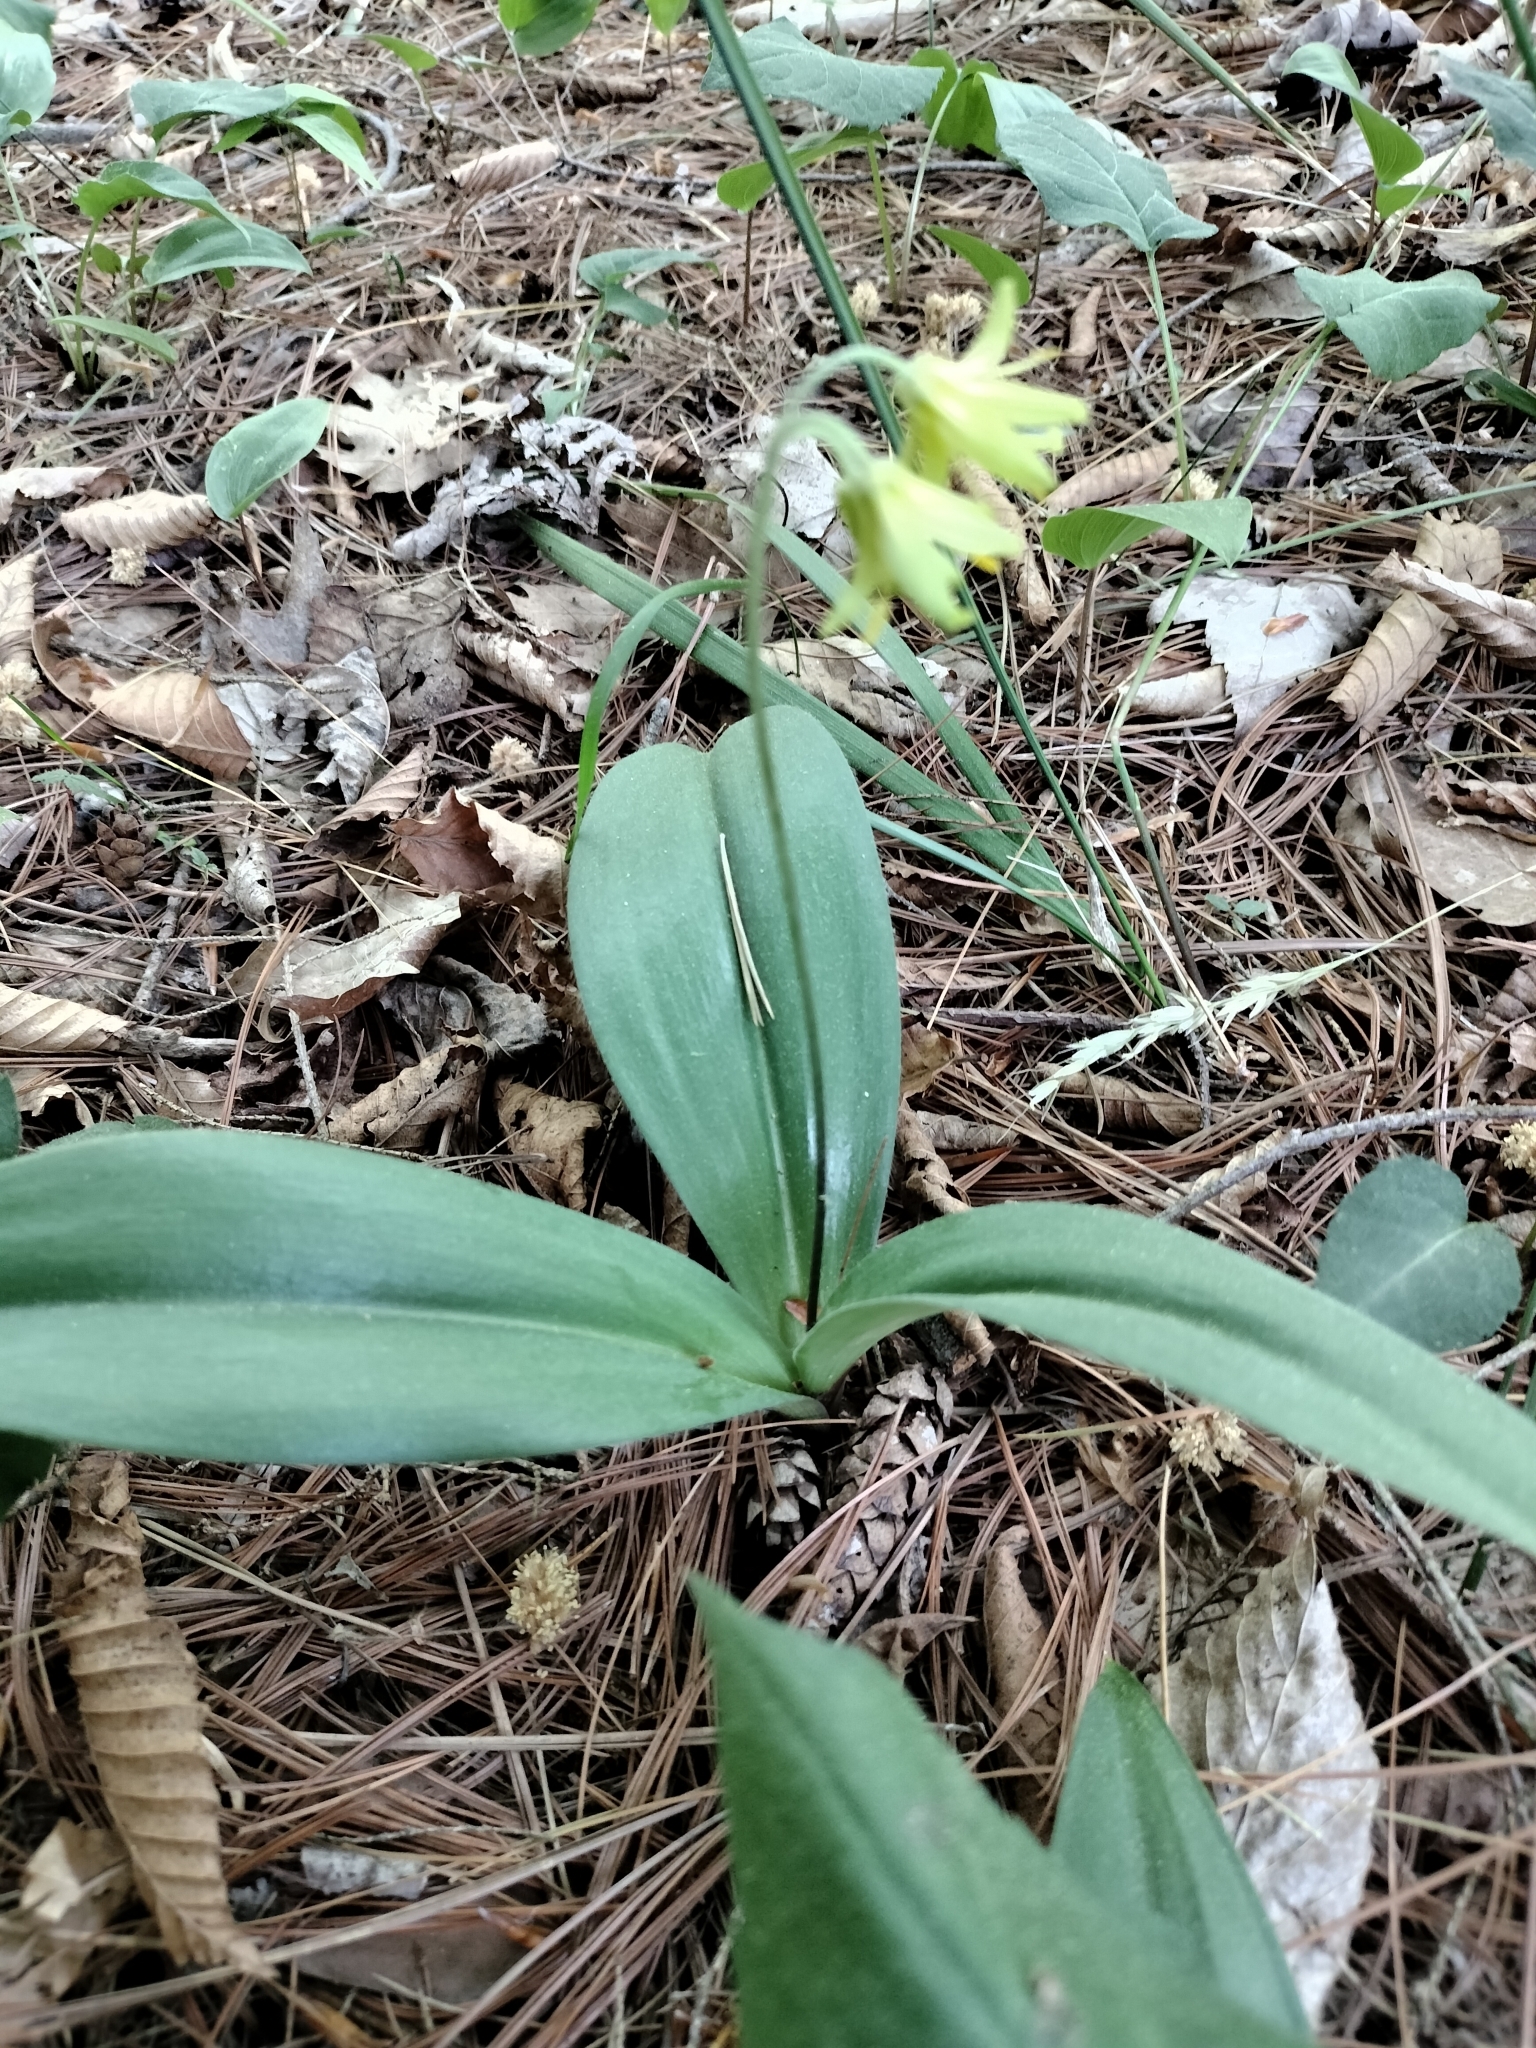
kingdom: Plantae
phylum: Tracheophyta
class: Liliopsida
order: Liliales
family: Liliaceae
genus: Clintonia
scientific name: Clintonia borealis
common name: Yellow clintonia
